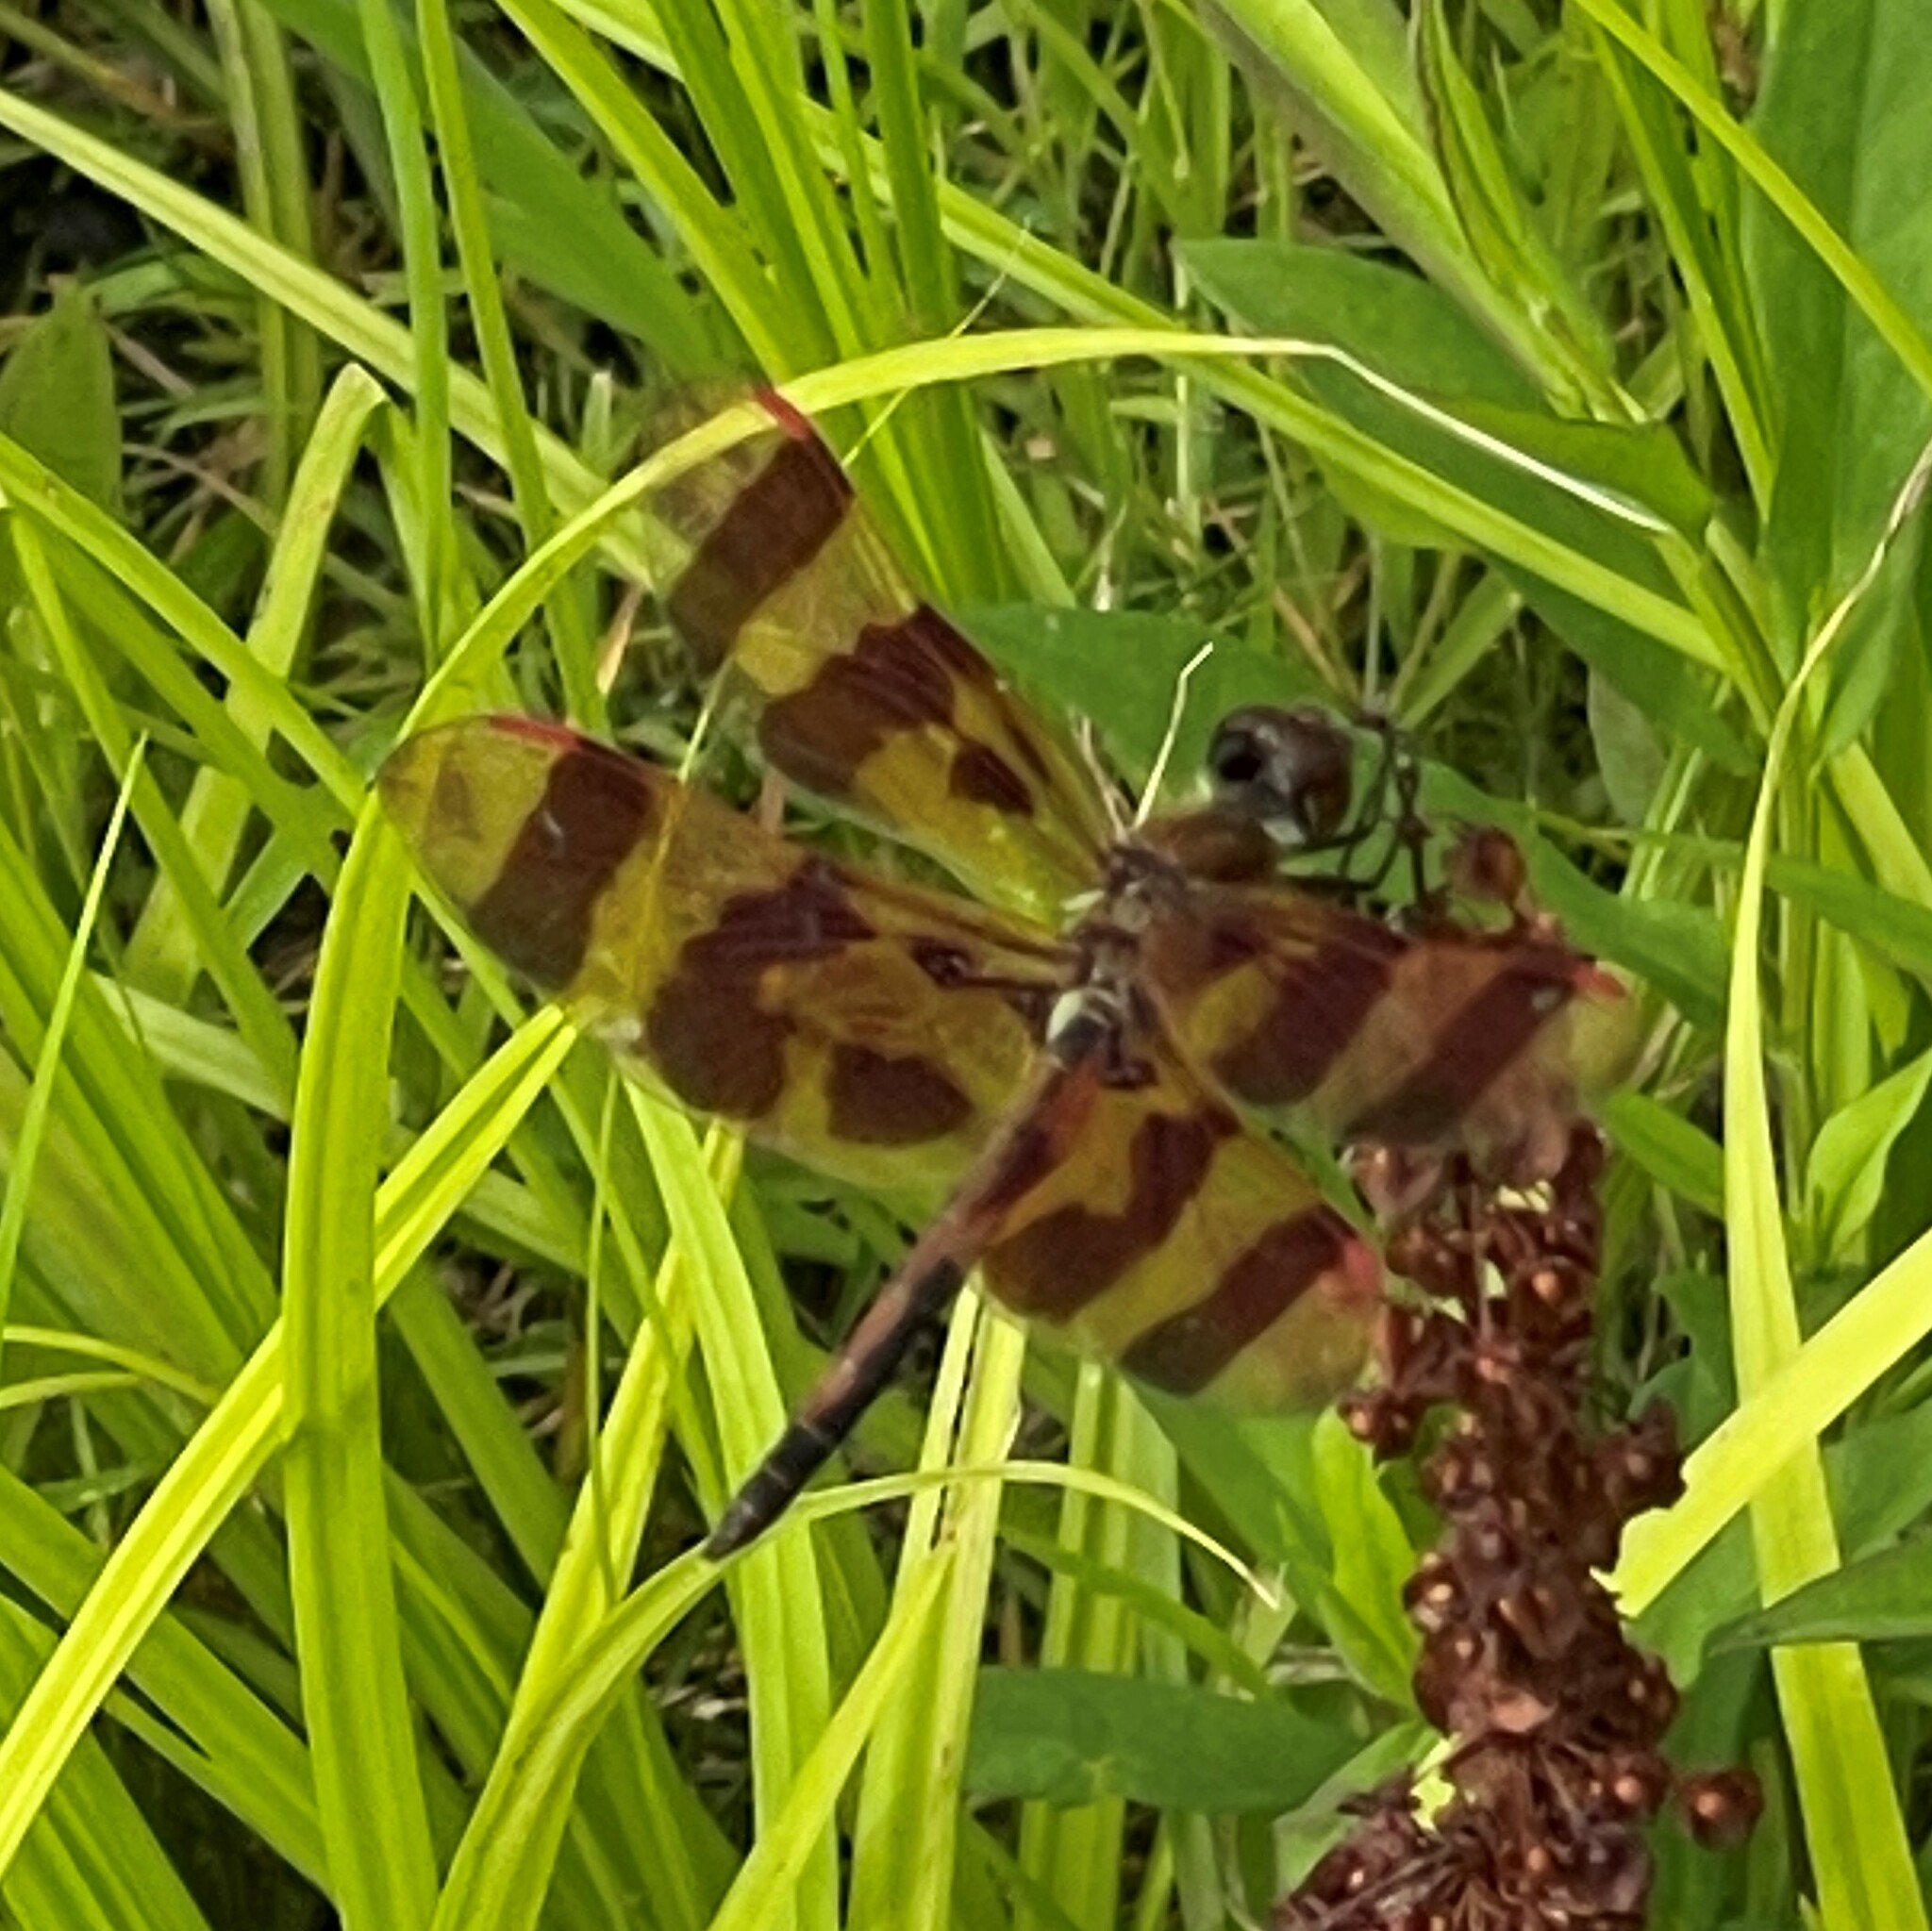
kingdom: Animalia
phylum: Arthropoda
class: Insecta
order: Odonata
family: Libellulidae
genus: Celithemis
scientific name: Celithemis eponina
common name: Halloween pennant
